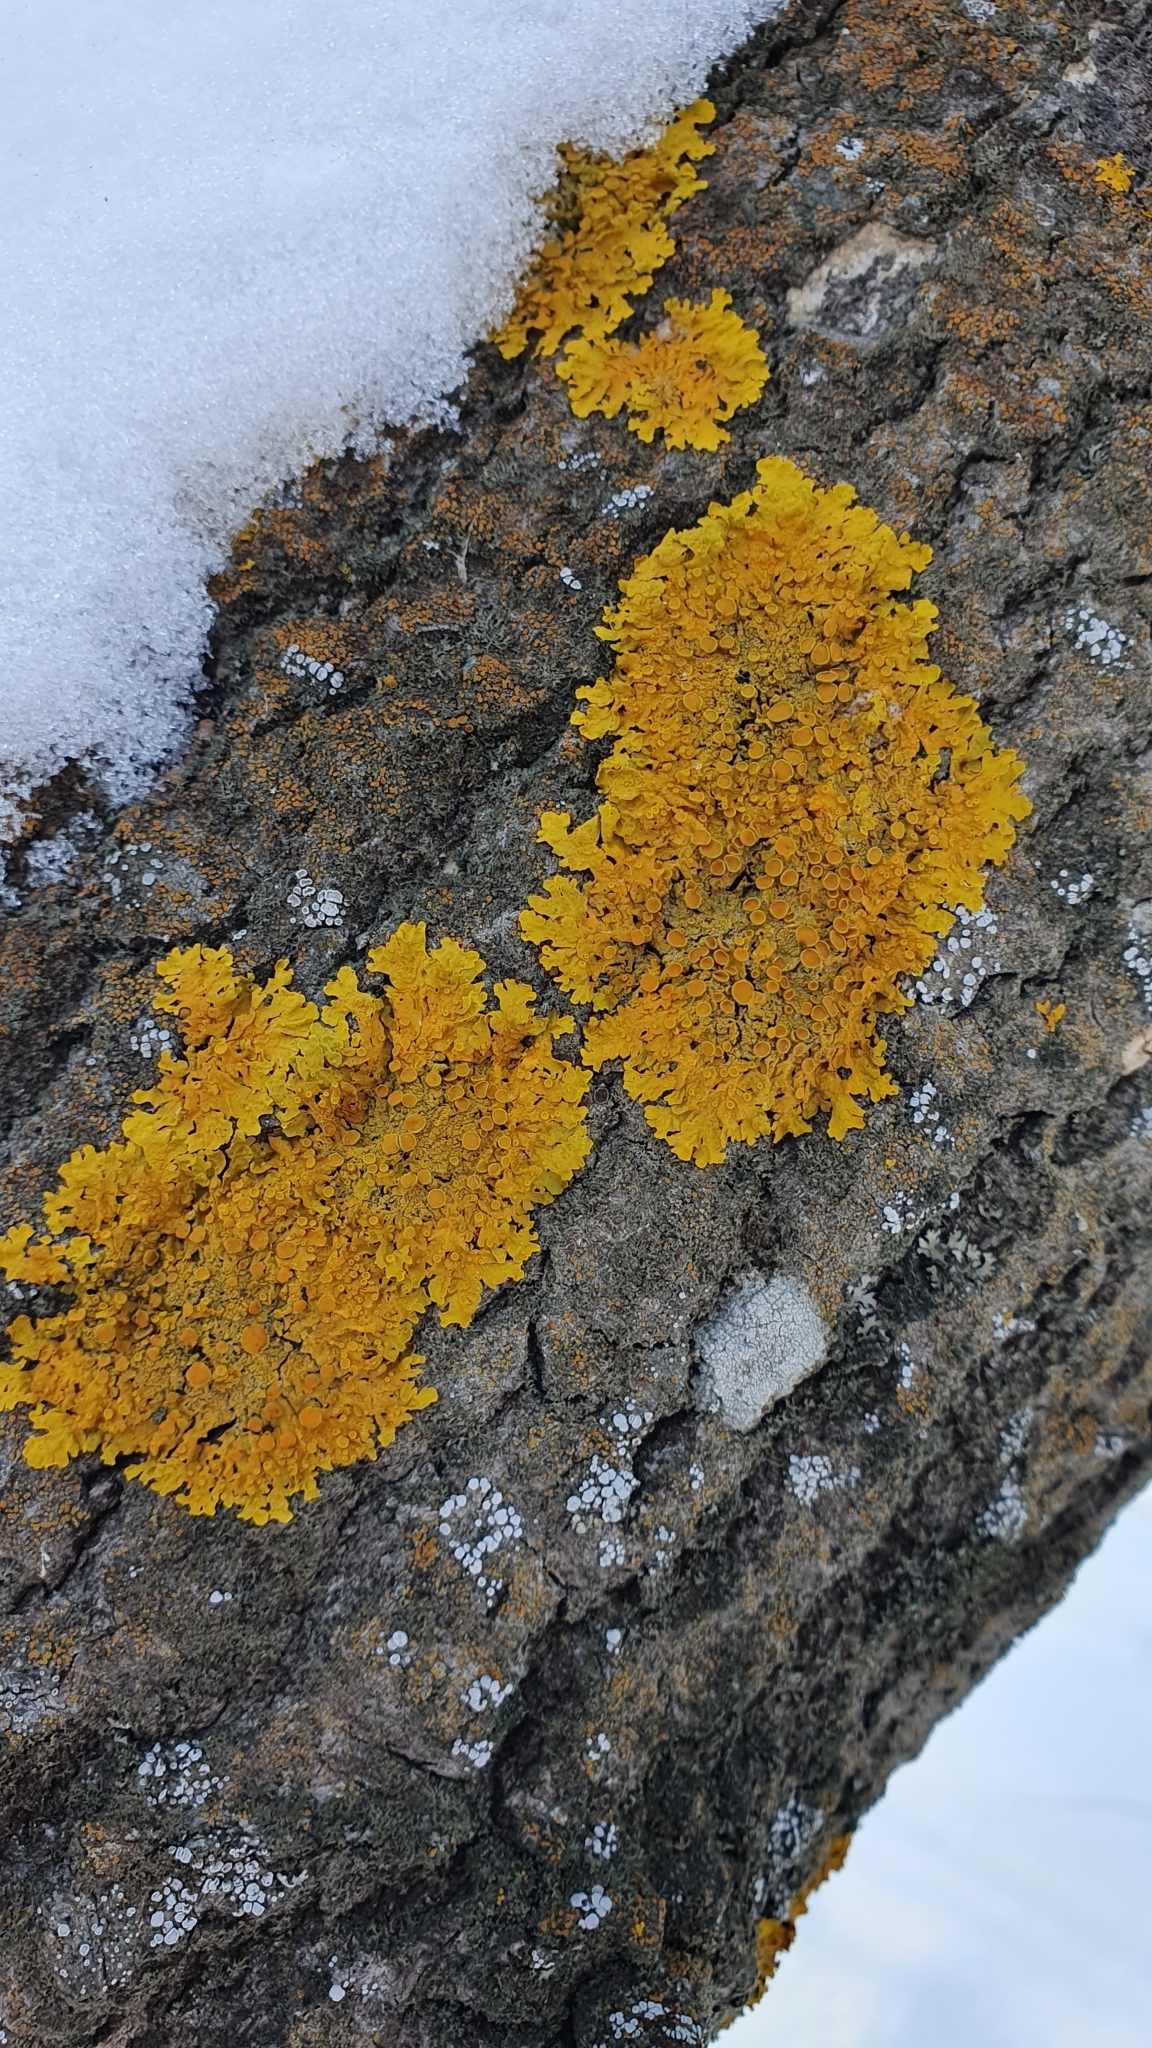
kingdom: Fungi
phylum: Ascomycota
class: Lecanoromycetes
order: Teloschistales
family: Teloschistaceae
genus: Xanthoria
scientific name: Xanthoria parietina
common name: Common orange lichen
